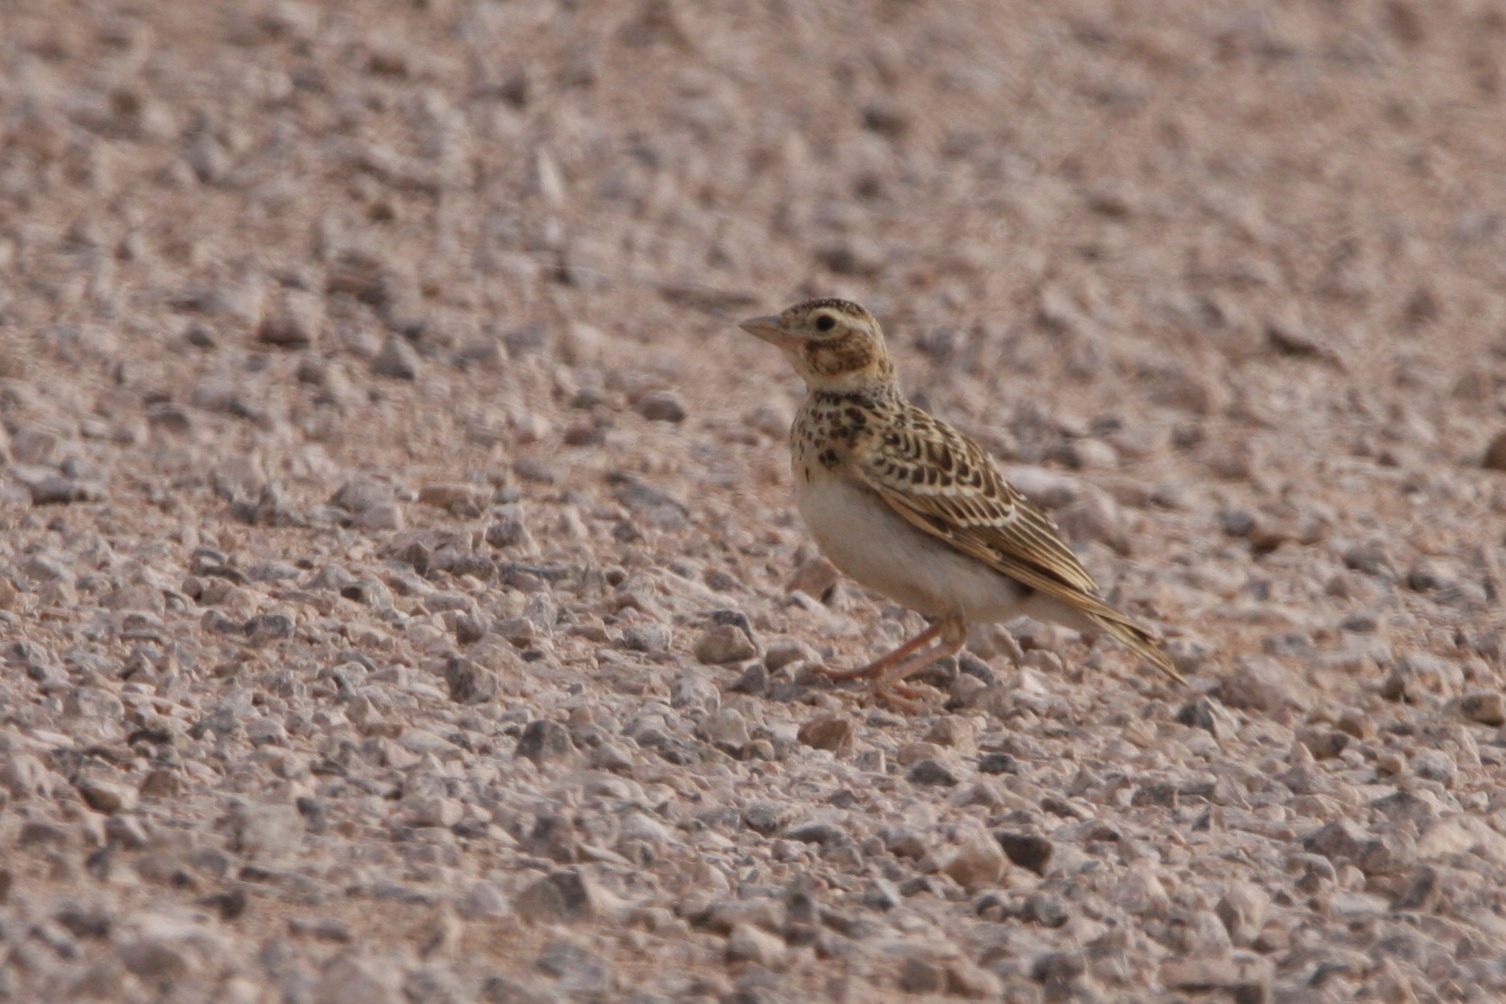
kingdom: Animalia
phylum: Chordata
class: Aves
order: Passeriformes
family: Alaudidae
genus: Melanocorypha
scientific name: Melanocorypha calandra
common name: Calandra lark
